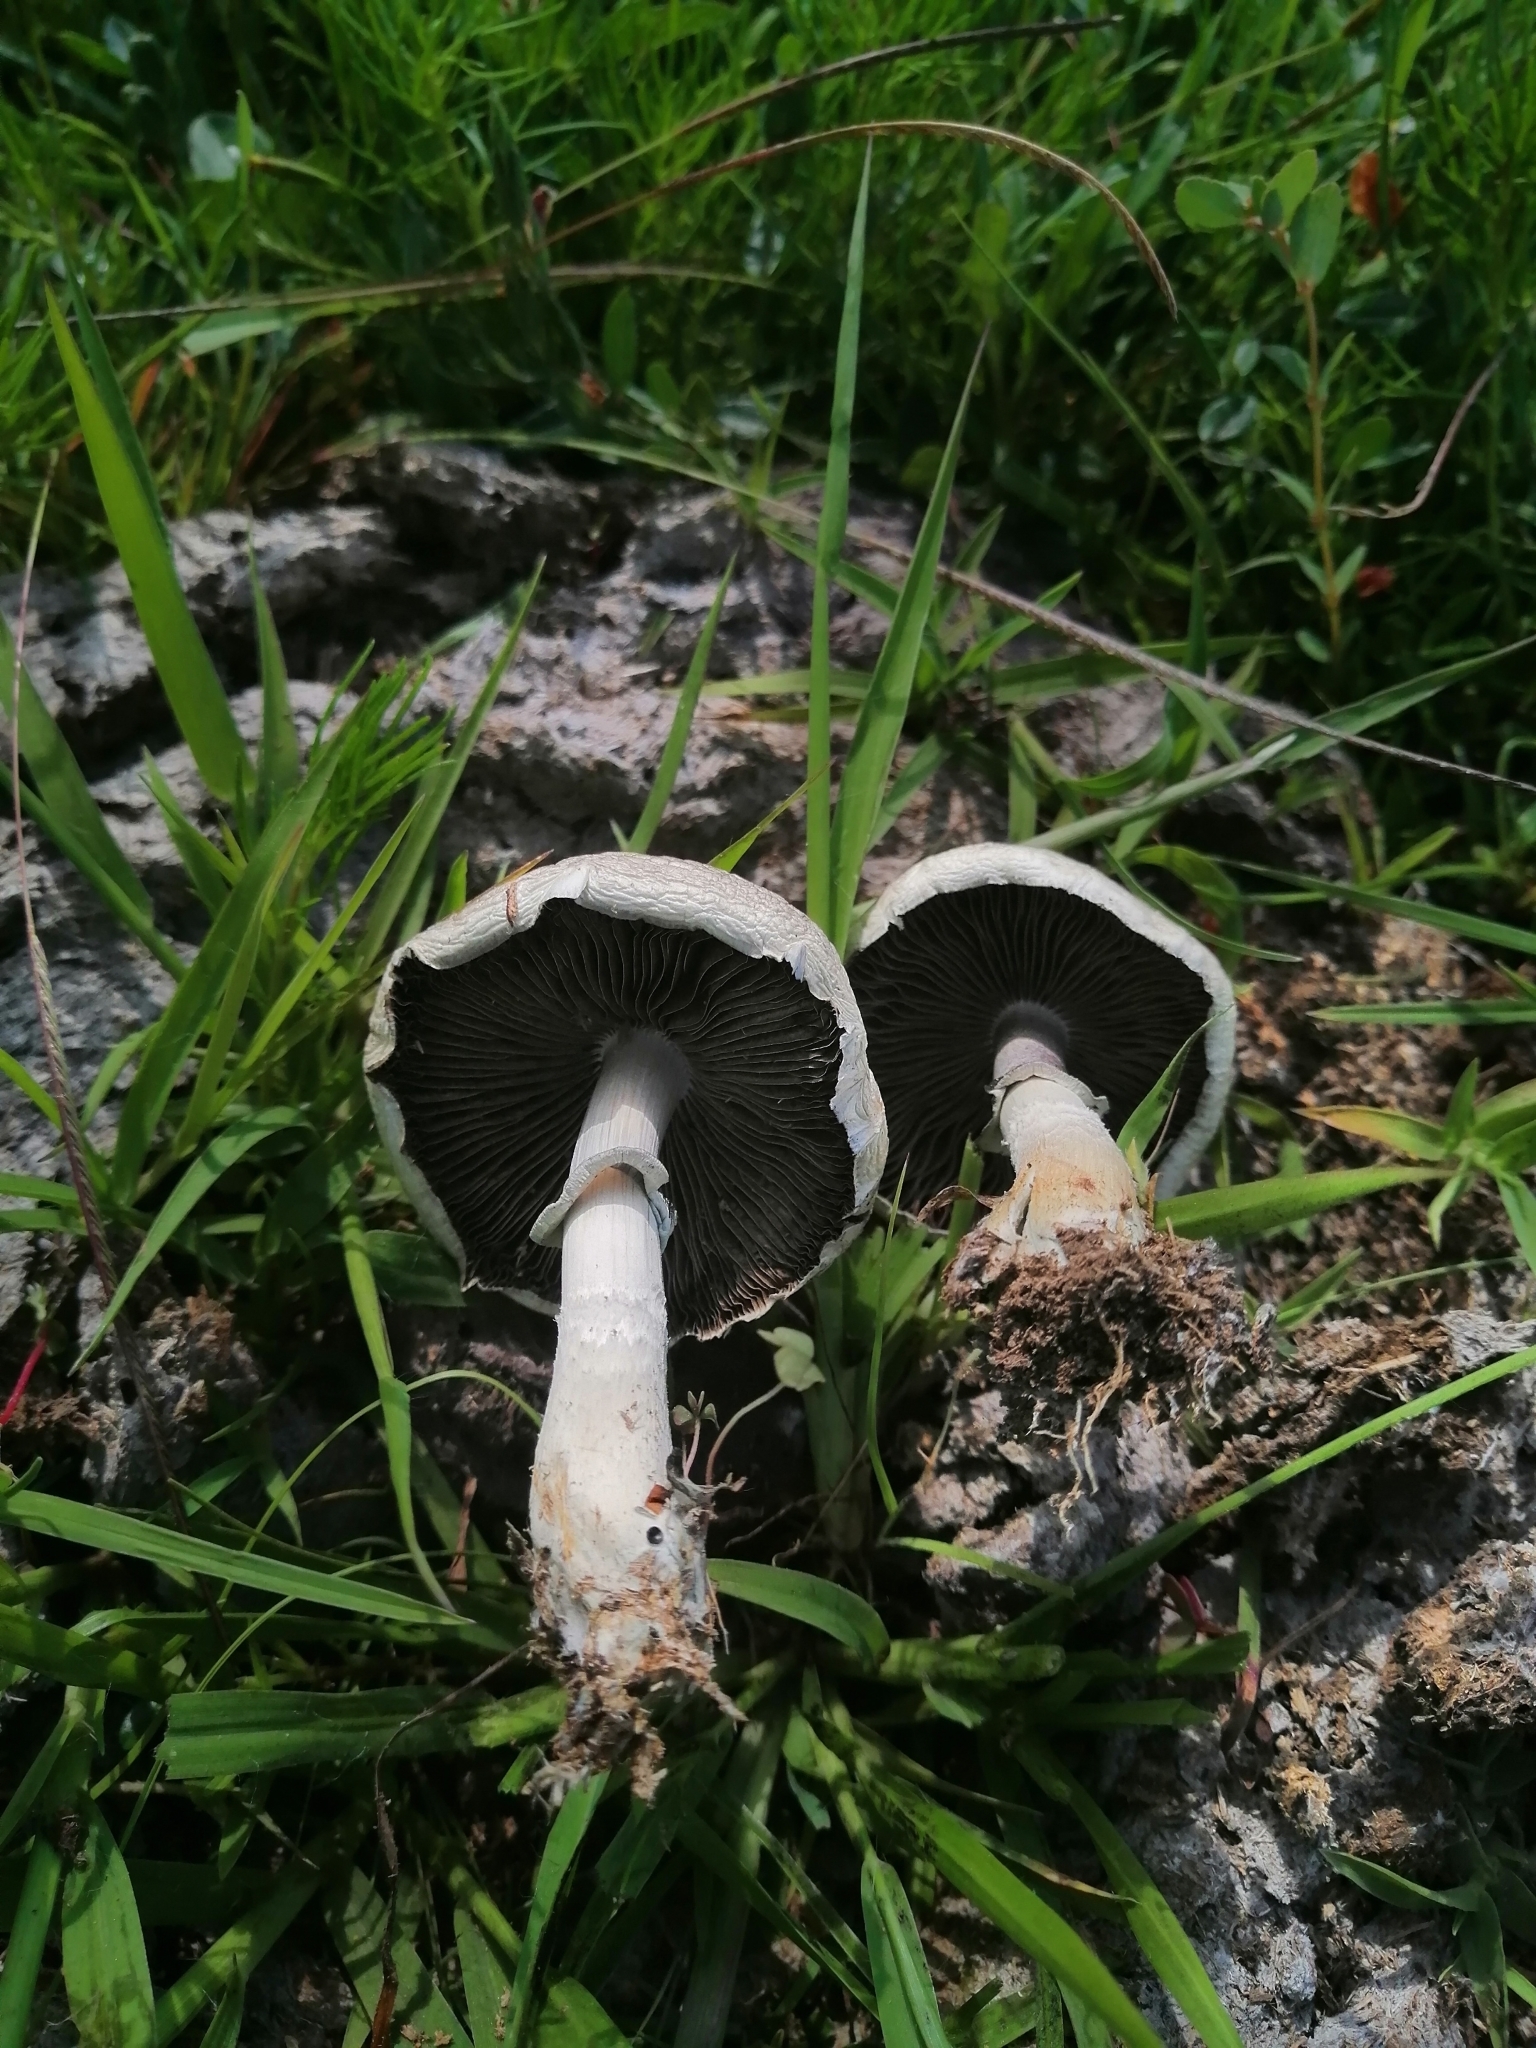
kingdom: Fungi
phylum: Basidiomycota
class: Agaricomycetes
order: Agaricales
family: Hymenogastraceae
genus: Psilocybe
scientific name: Psilocybe cubensis
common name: Golden brownie
